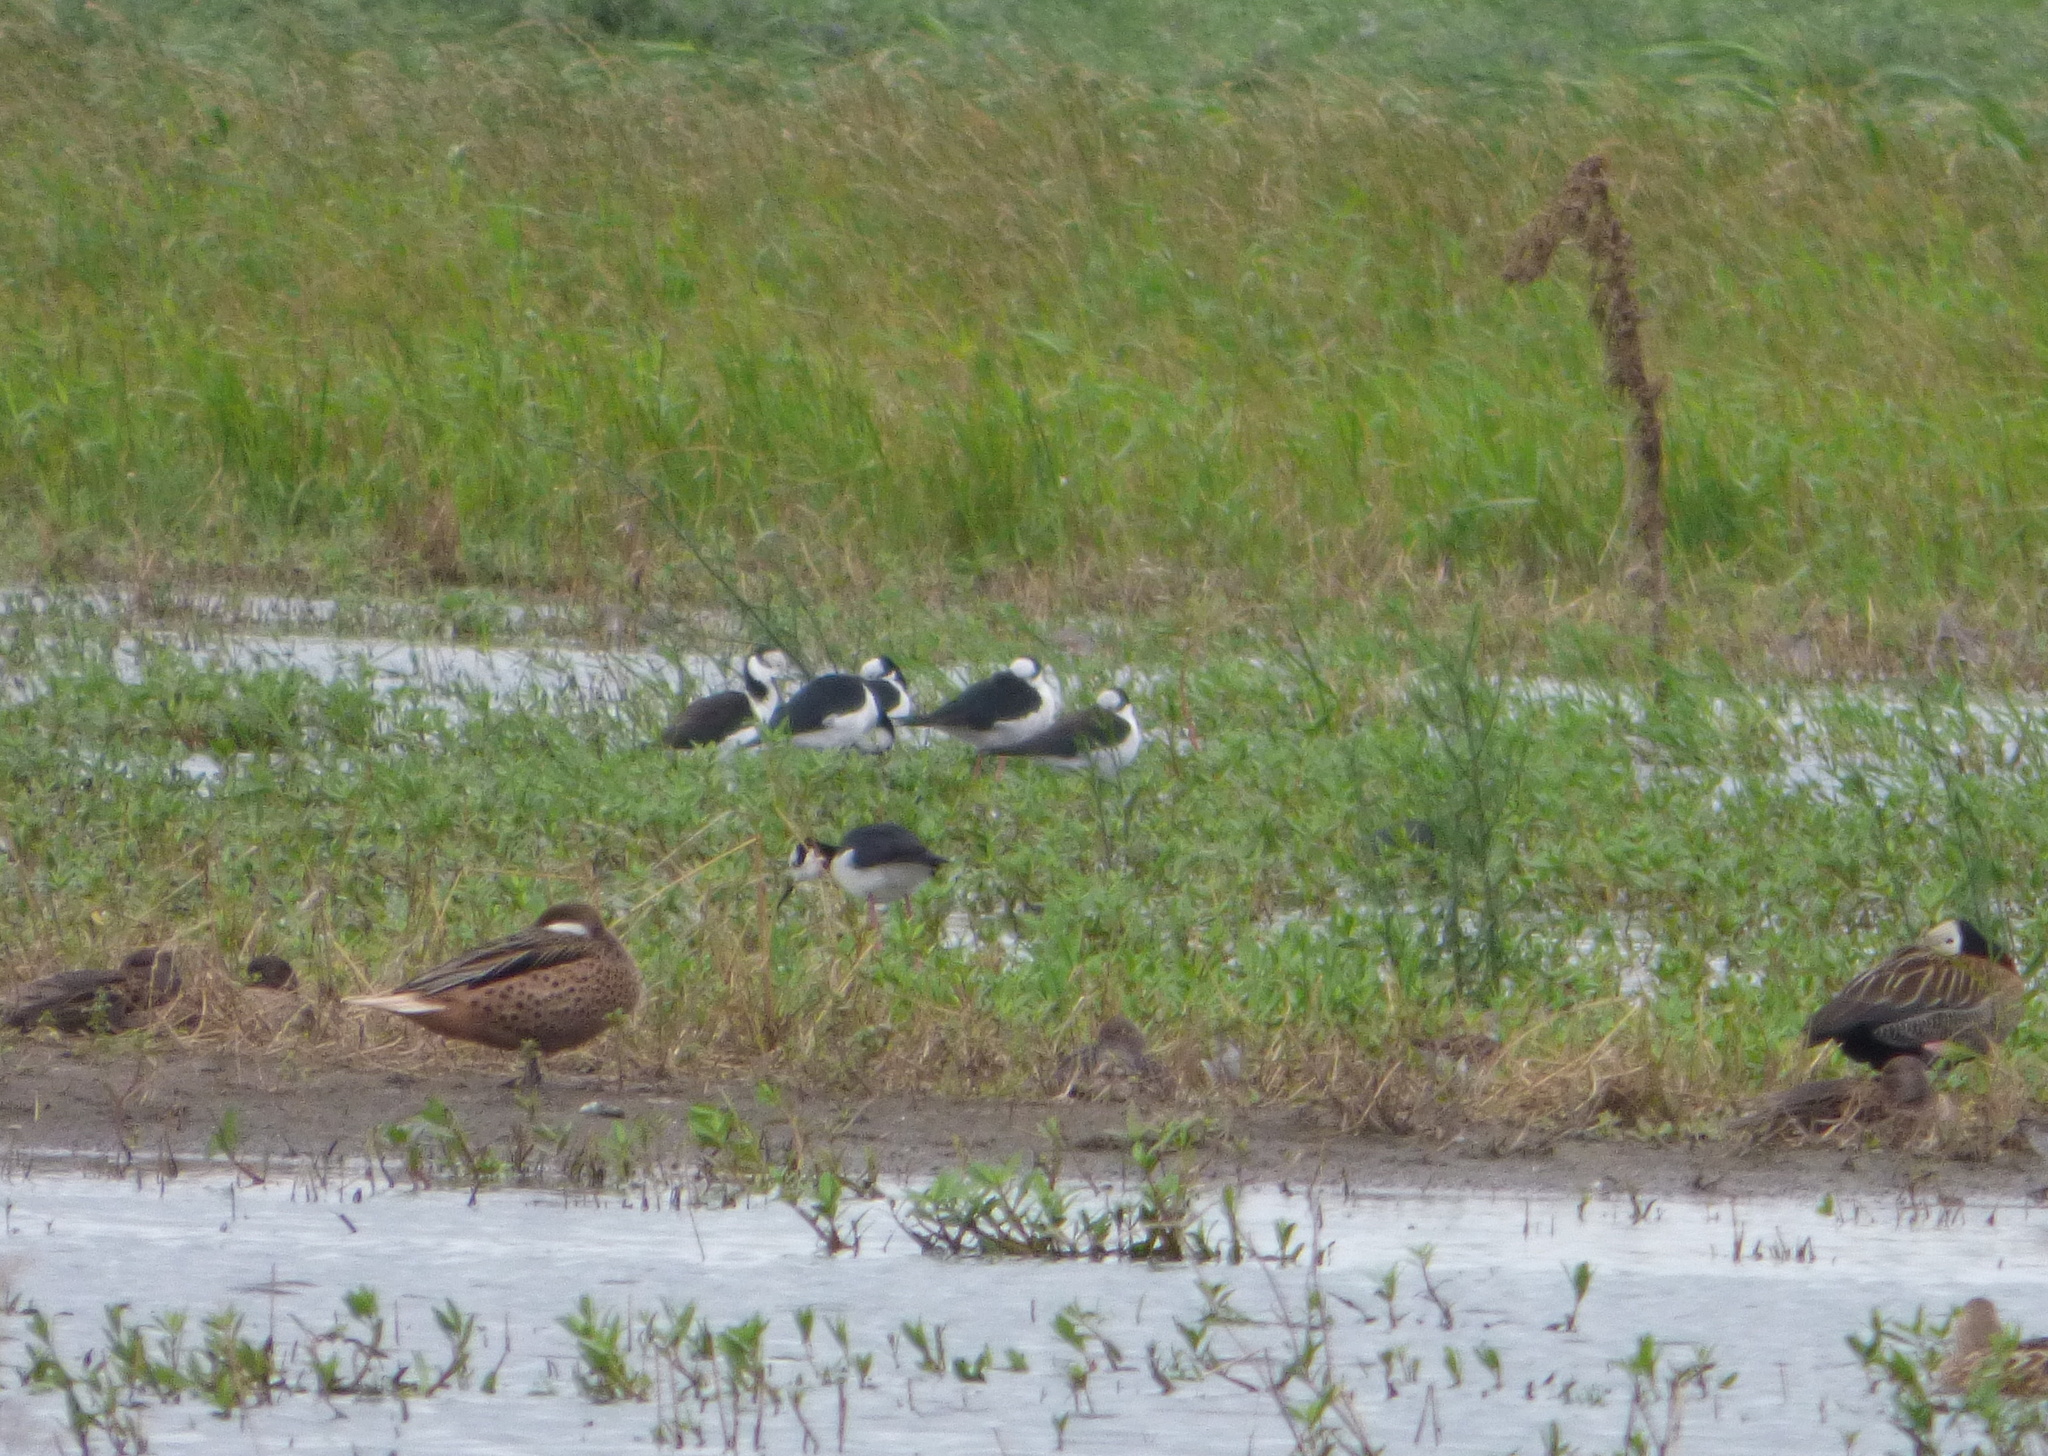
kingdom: Animalia
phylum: Chordata
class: Aves
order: Charadriiformes
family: Recurvirostridae
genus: Himantopus
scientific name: Himantopus mexicanus
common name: Black-necked stilt
